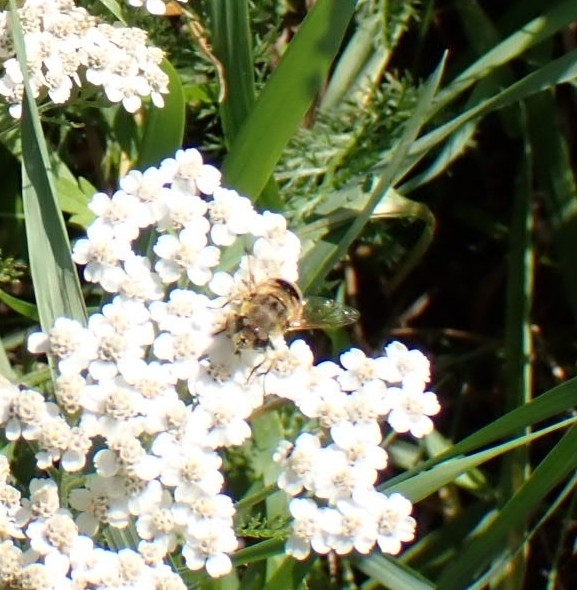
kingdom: Animalia
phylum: Arthropoda
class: Insecta
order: Diptera
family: Syrphidae
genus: Eristalis
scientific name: Eristalis arbustorum
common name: Hover fly
